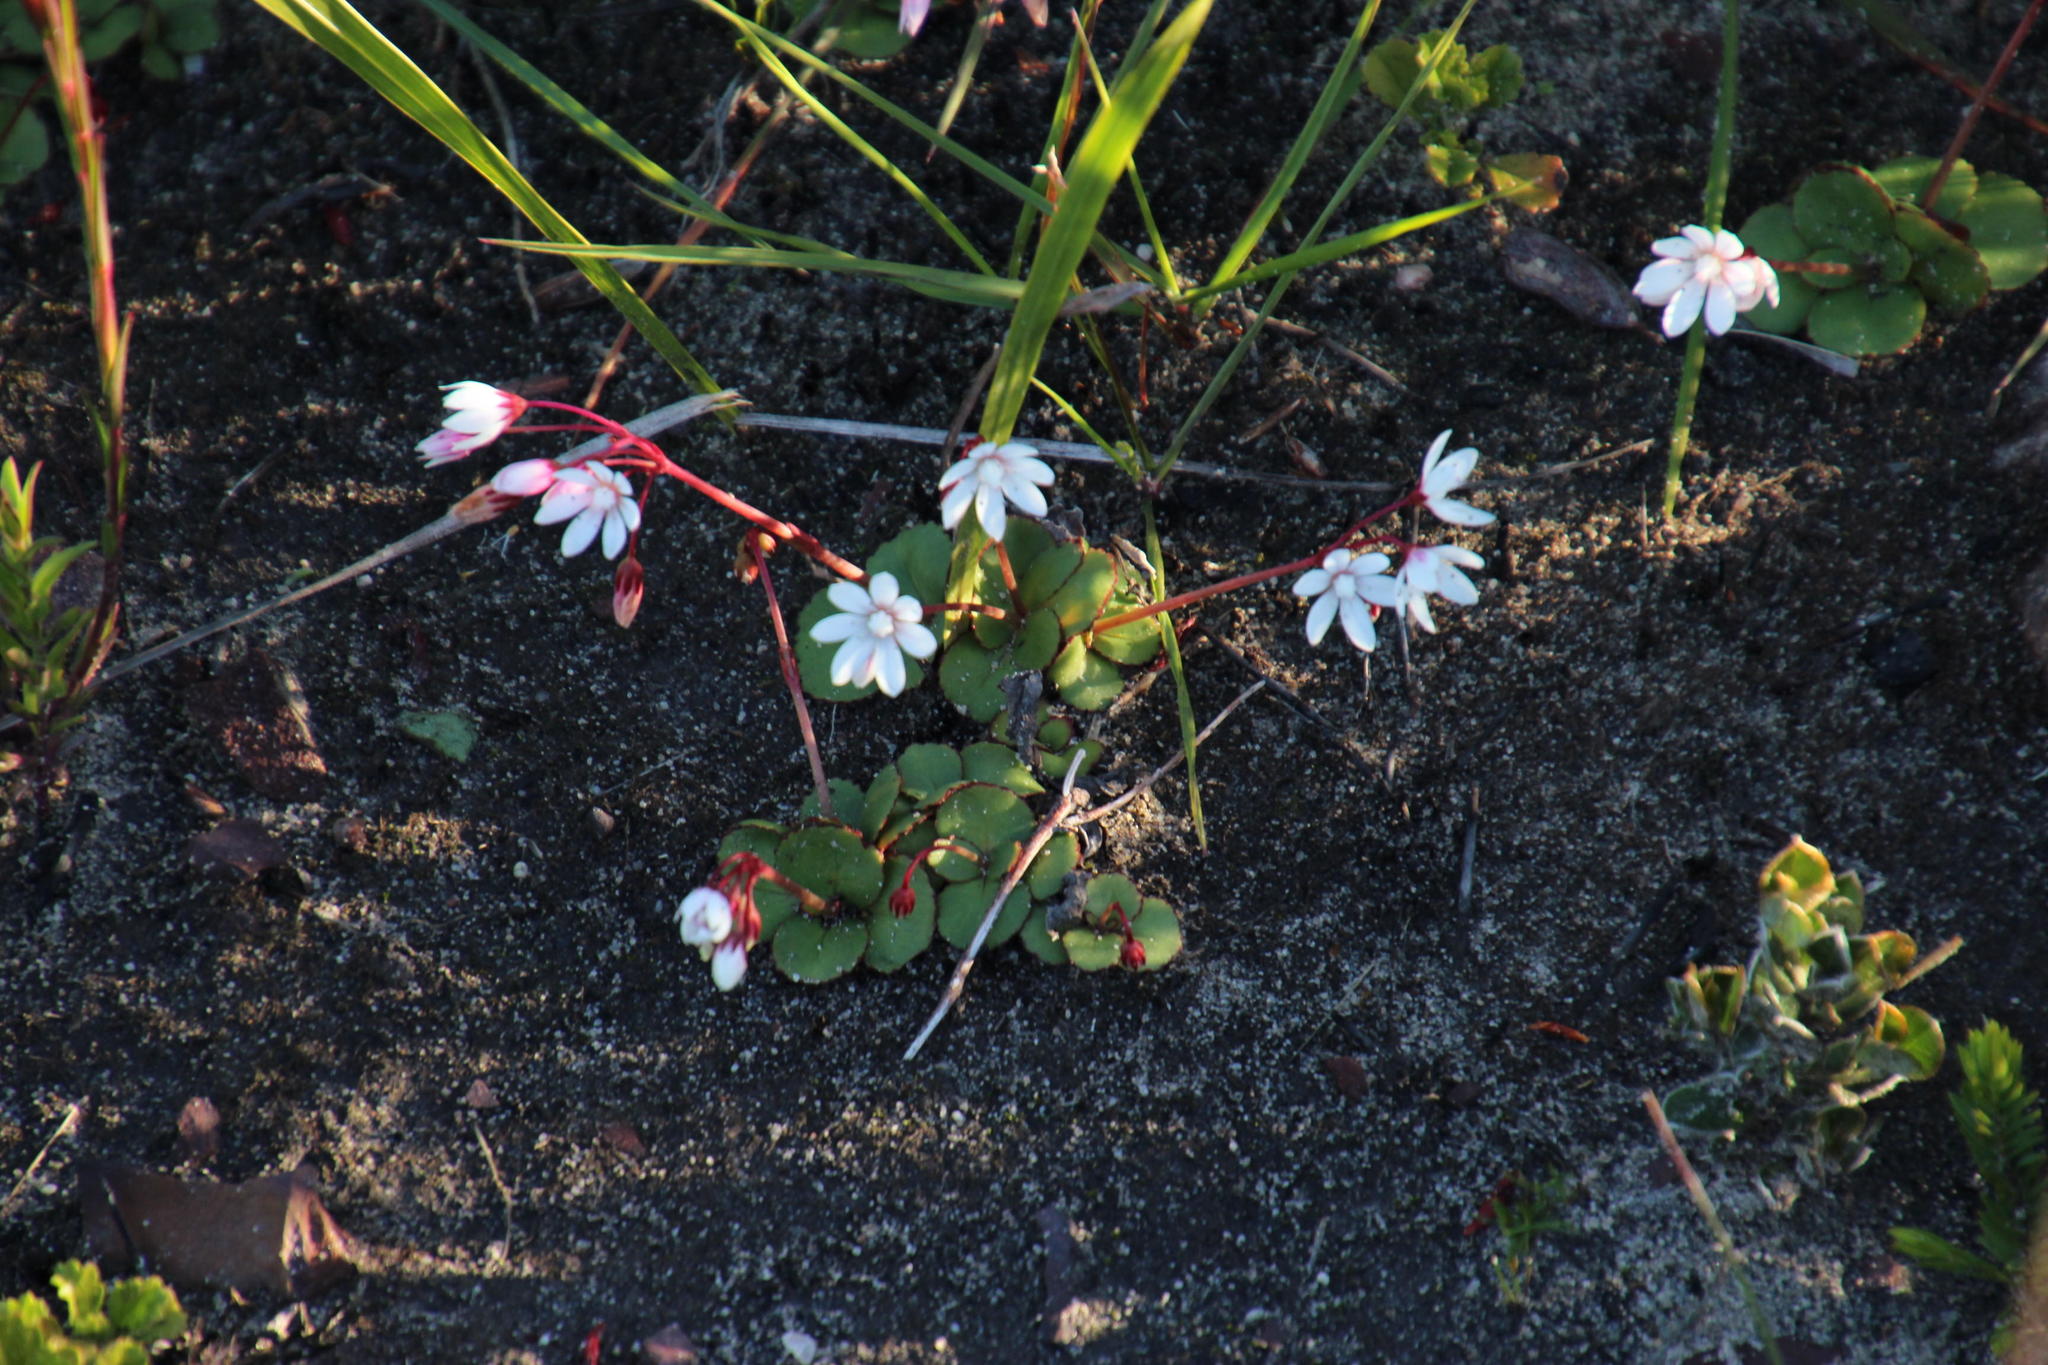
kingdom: Plantae
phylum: Tracheophyta
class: Magnoliopsida
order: Saxifragales
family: Crassulaceae
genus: Crassula
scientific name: Crassula capensis
